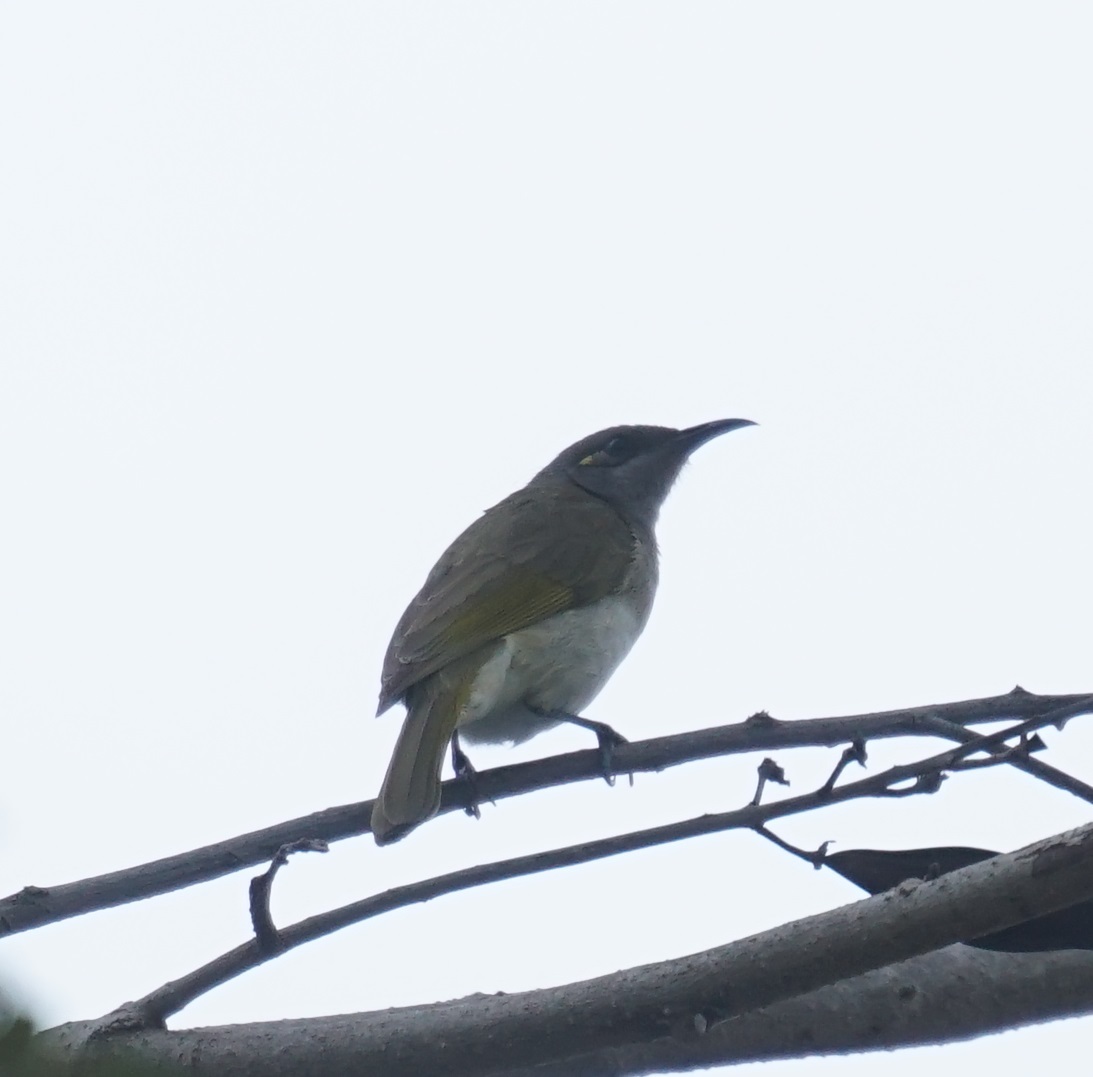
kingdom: Animalia
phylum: Chordata
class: Aves
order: Passeriformes
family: Meliphagidae
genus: Lichmera
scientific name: Lichmera indistincta
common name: Brown honeyeater
